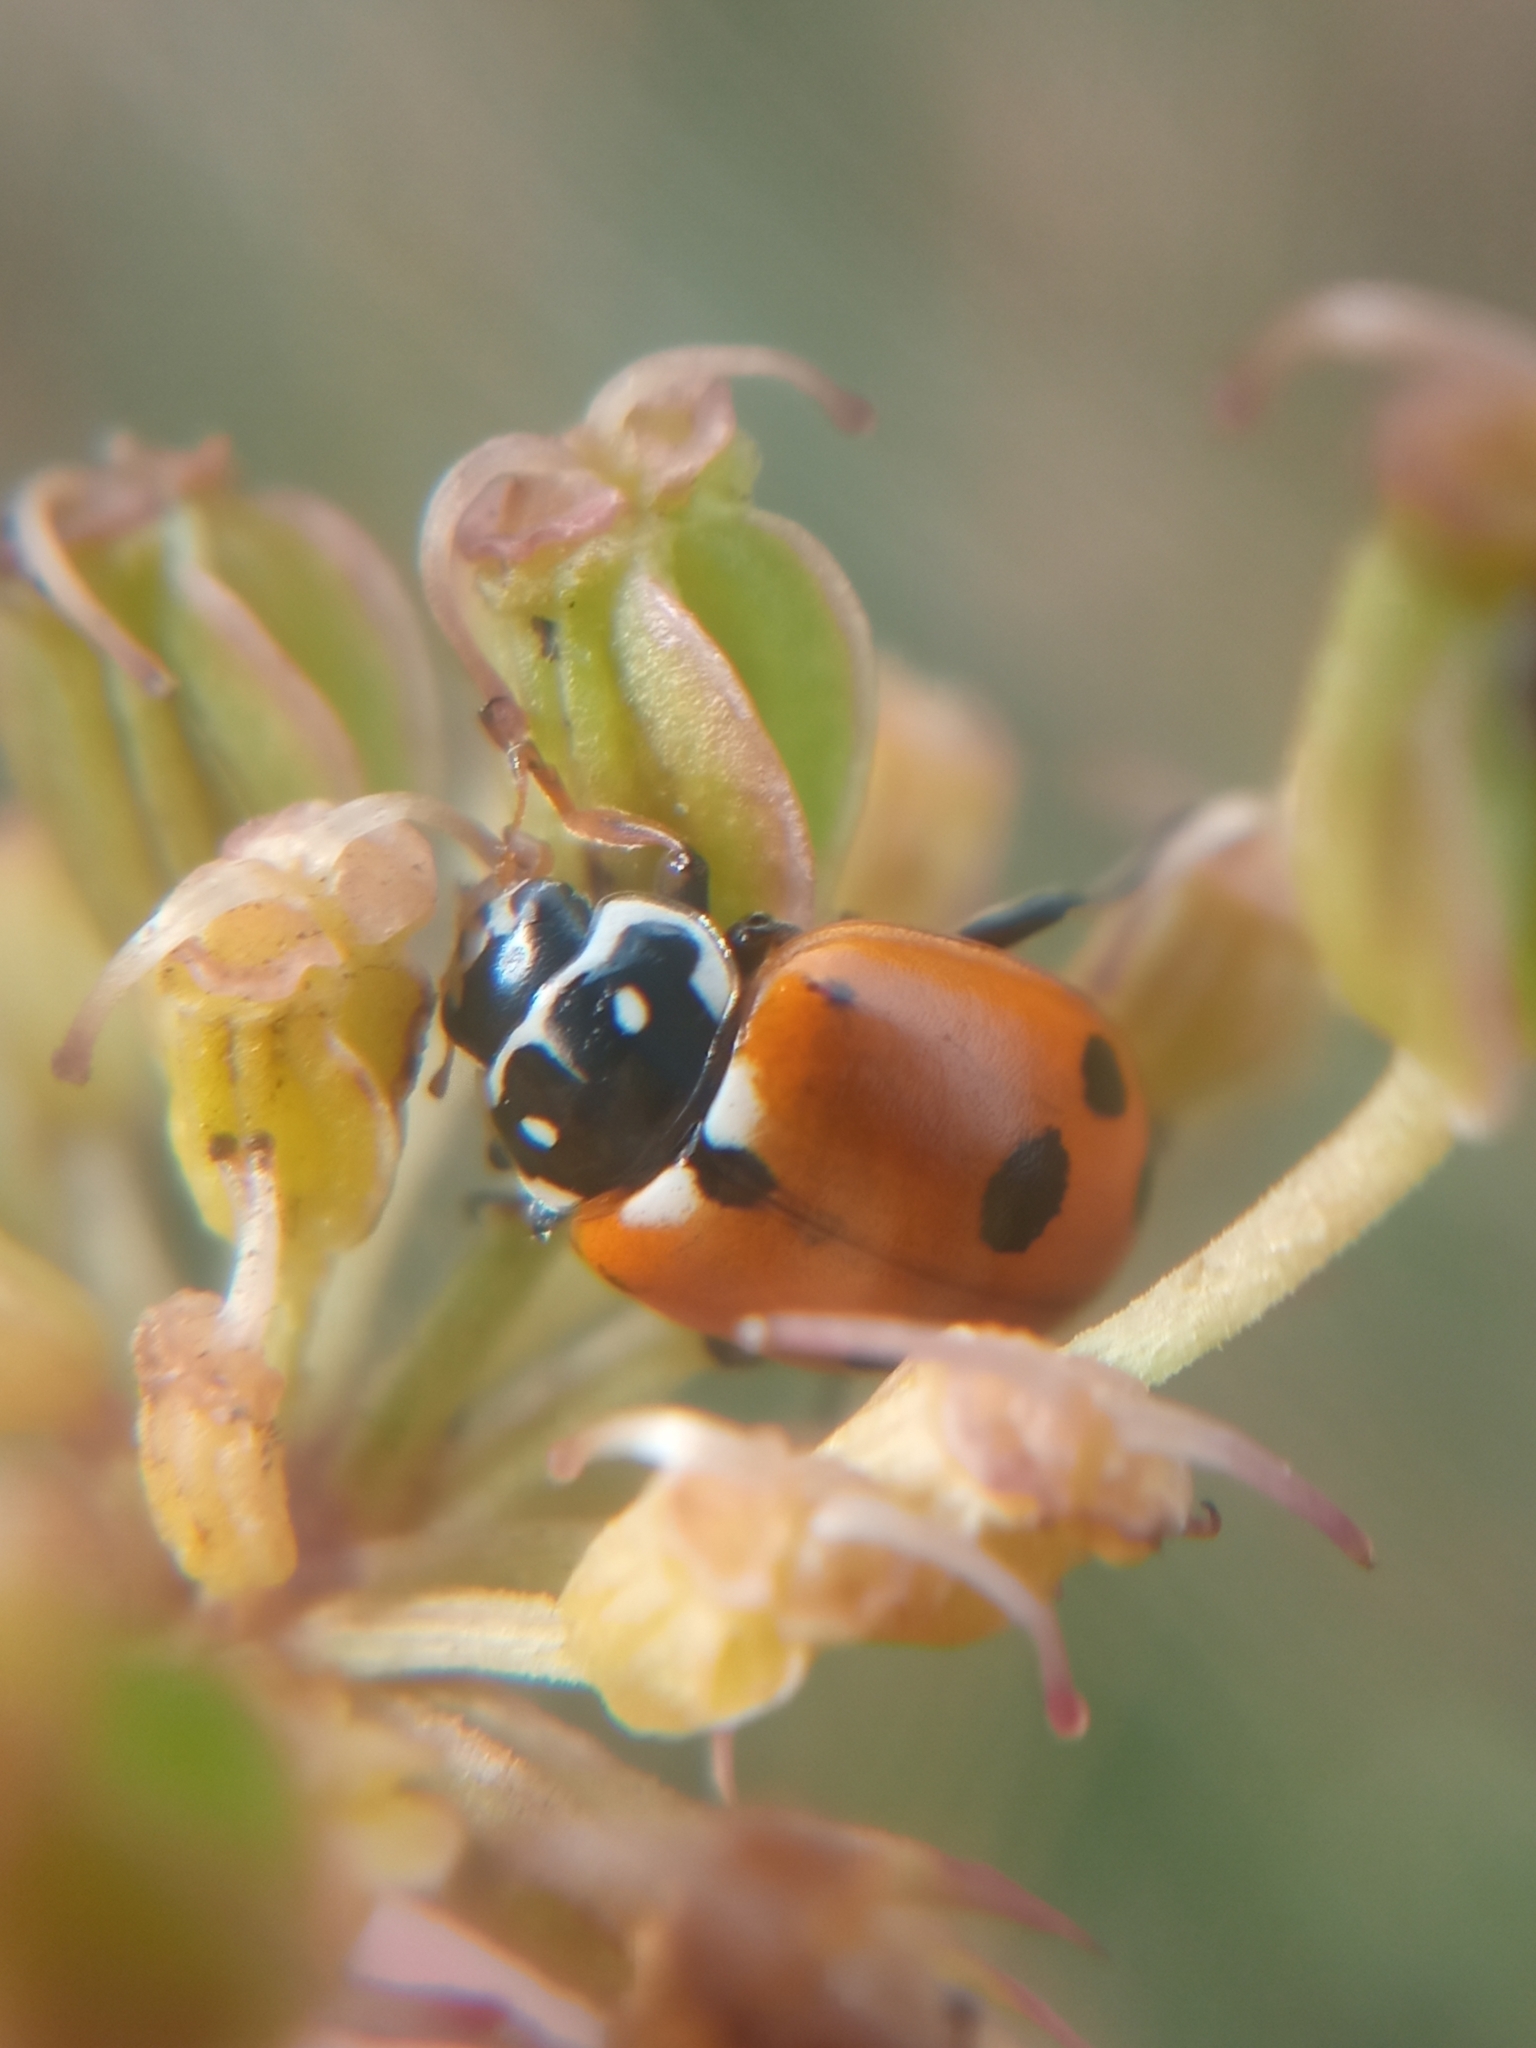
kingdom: Animalia
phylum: Arthropoda
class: Insecta
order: Coleoptera
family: Coccinellidae
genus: Hippodamia
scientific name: Hippodamia variegata
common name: Ladybird beetle
